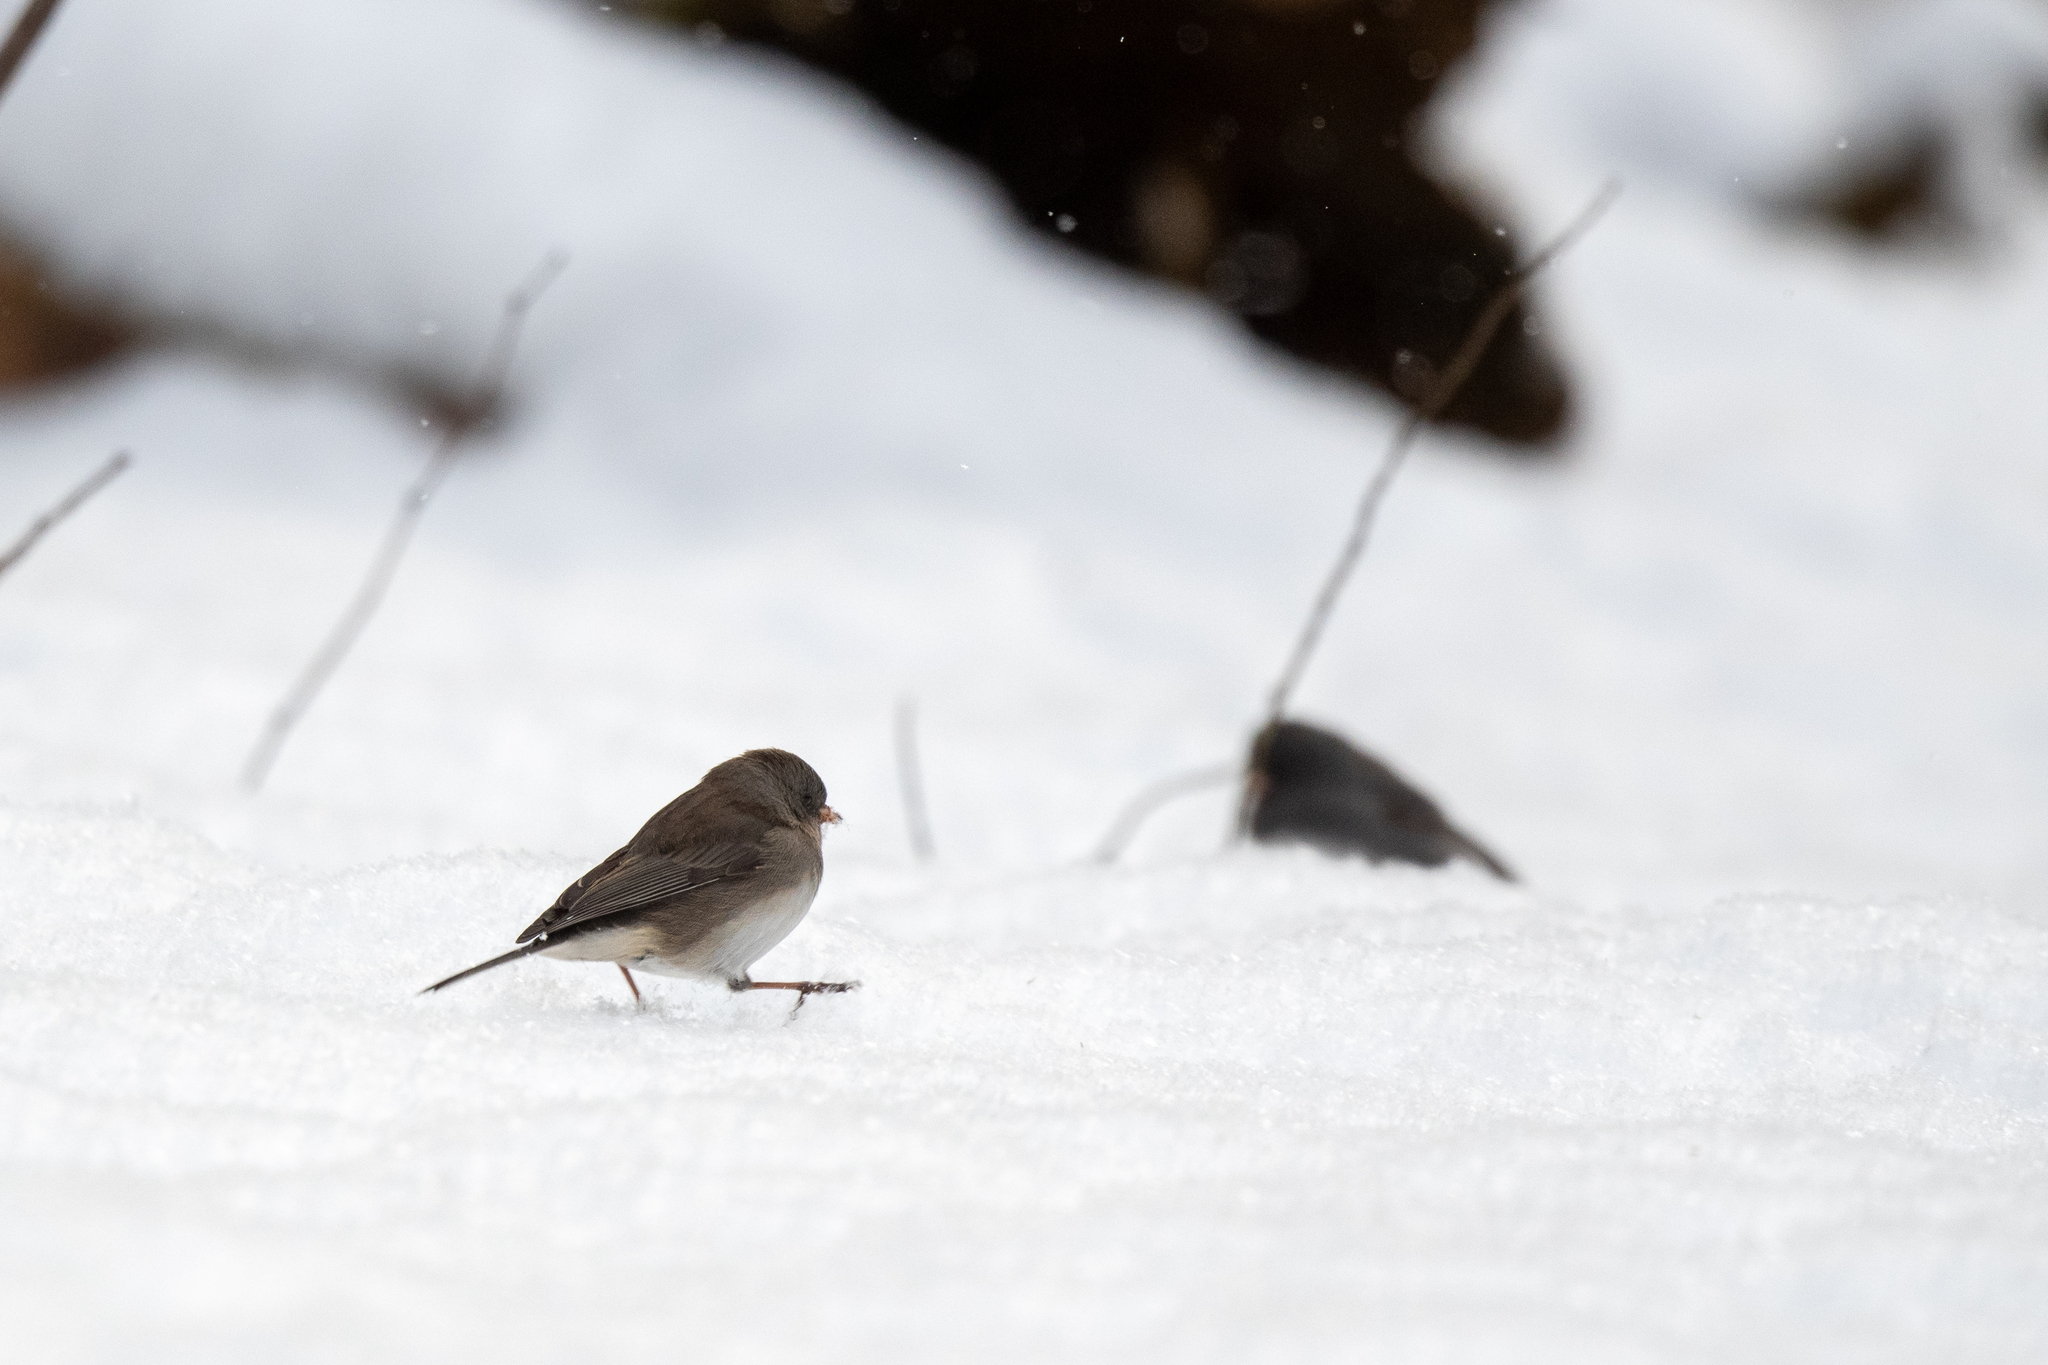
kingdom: Animalia
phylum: Chordata
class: Aves
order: Passeriformes
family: Passerellidae
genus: Junco
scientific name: Junco hyemalis
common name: Dark-eyed junco
